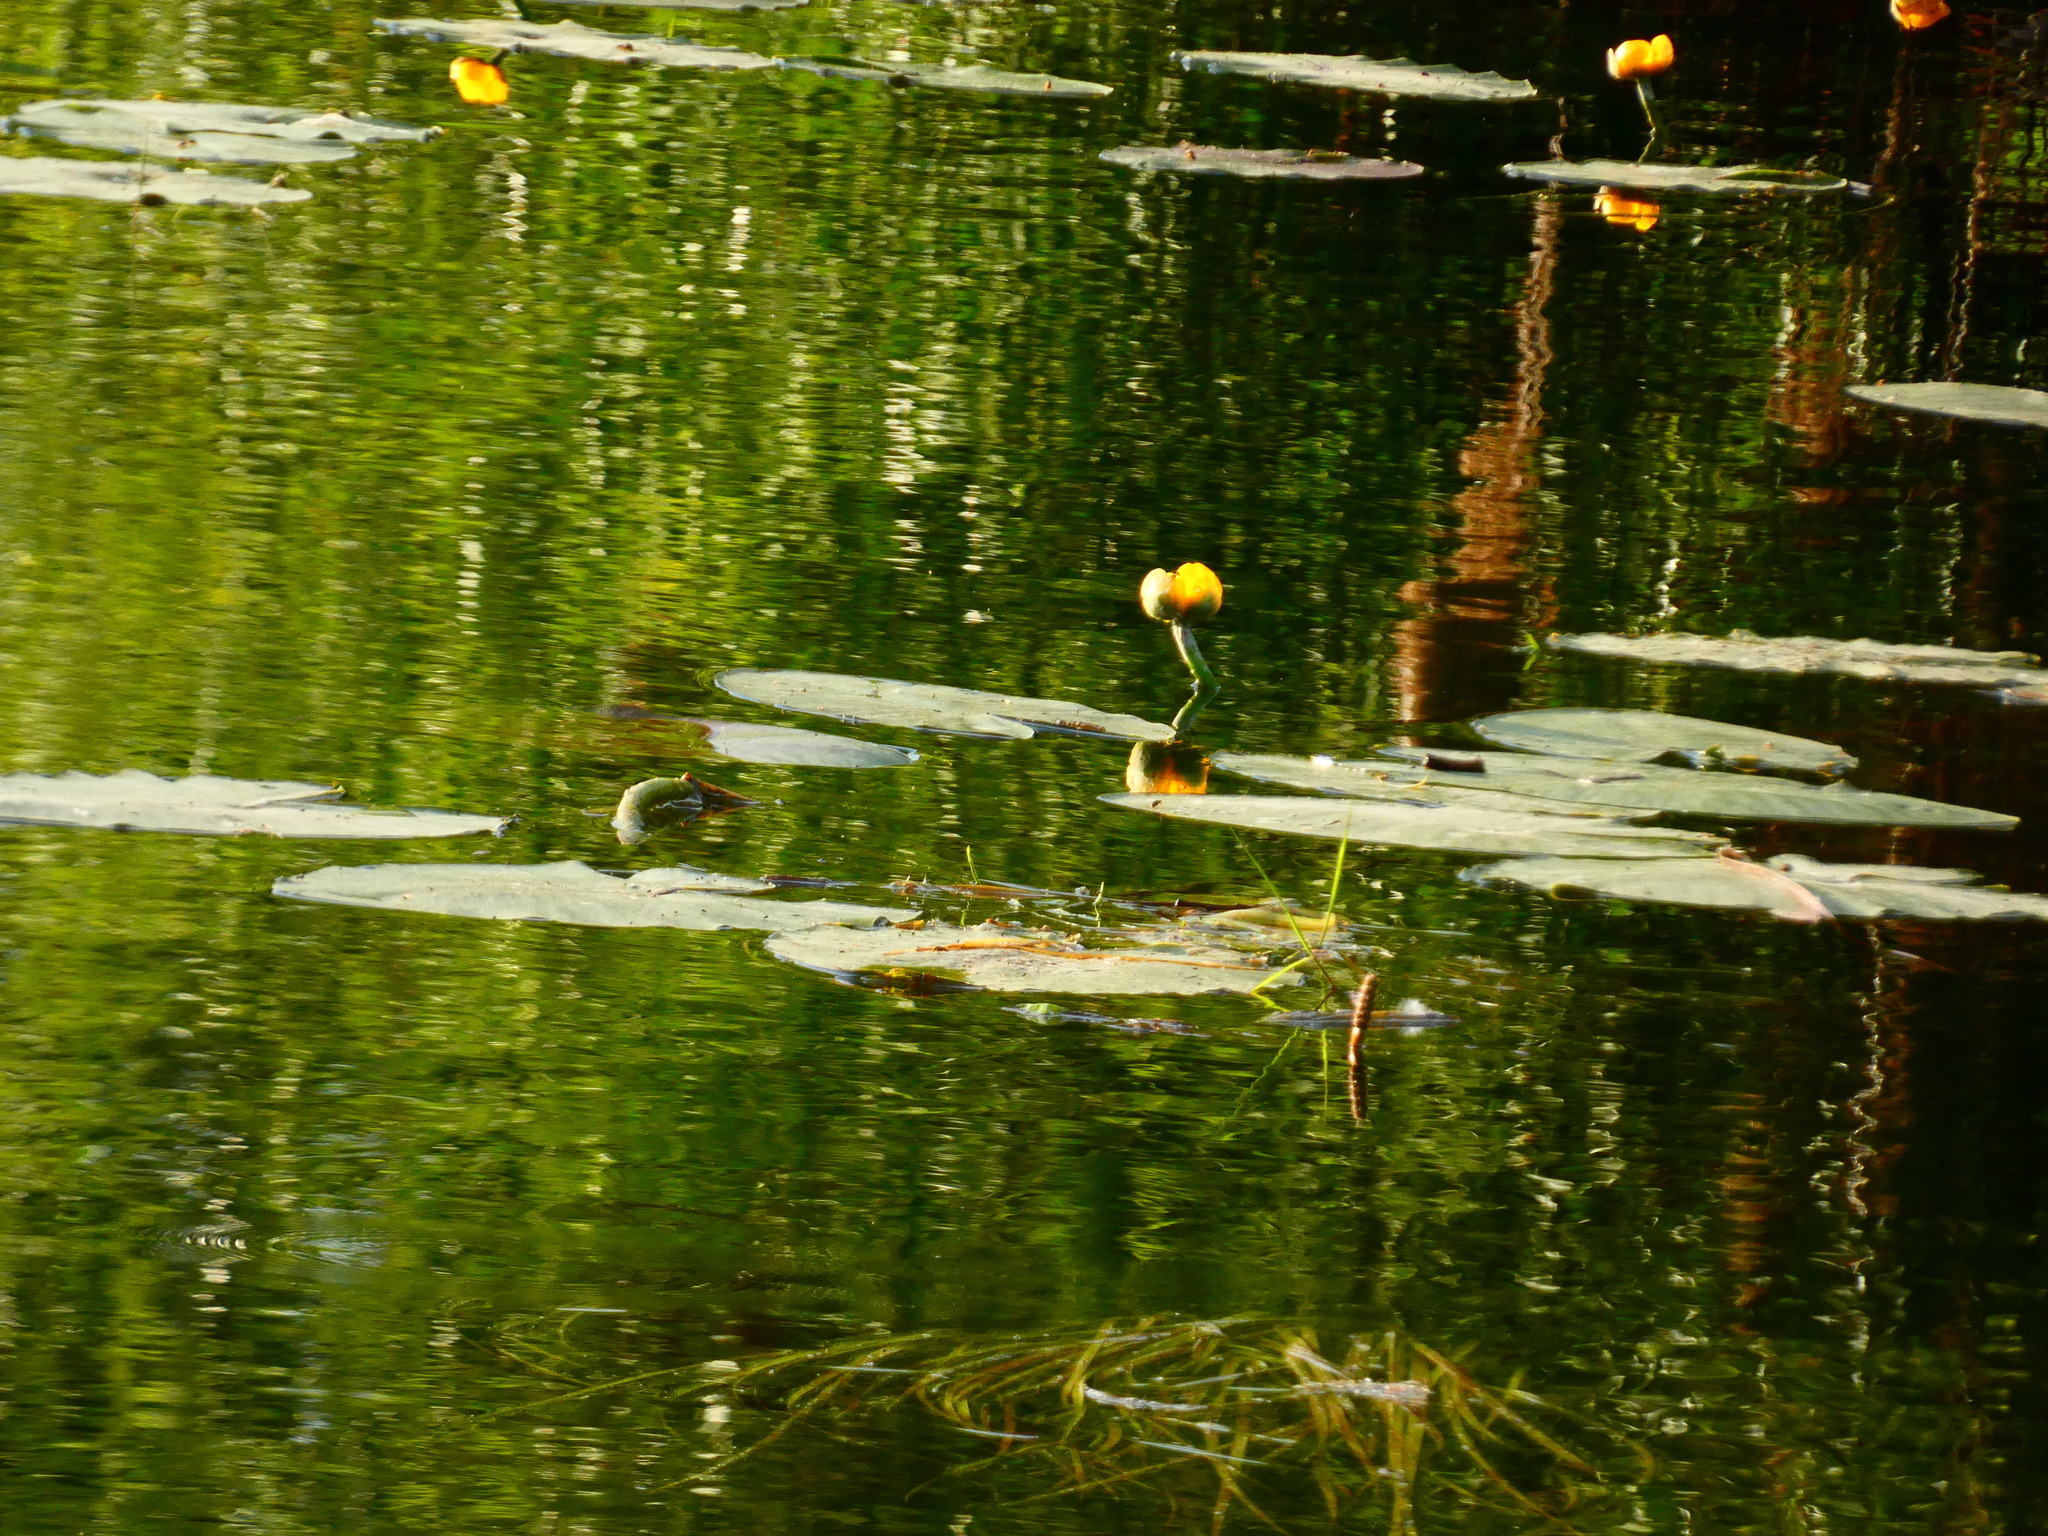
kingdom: Plantae
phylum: Tracheophyta
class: Magnoliopsida
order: Nymphaeales
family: Nymphaeaceae
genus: Nuphar
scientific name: Nuphar lutea
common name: Yellow water-lily
